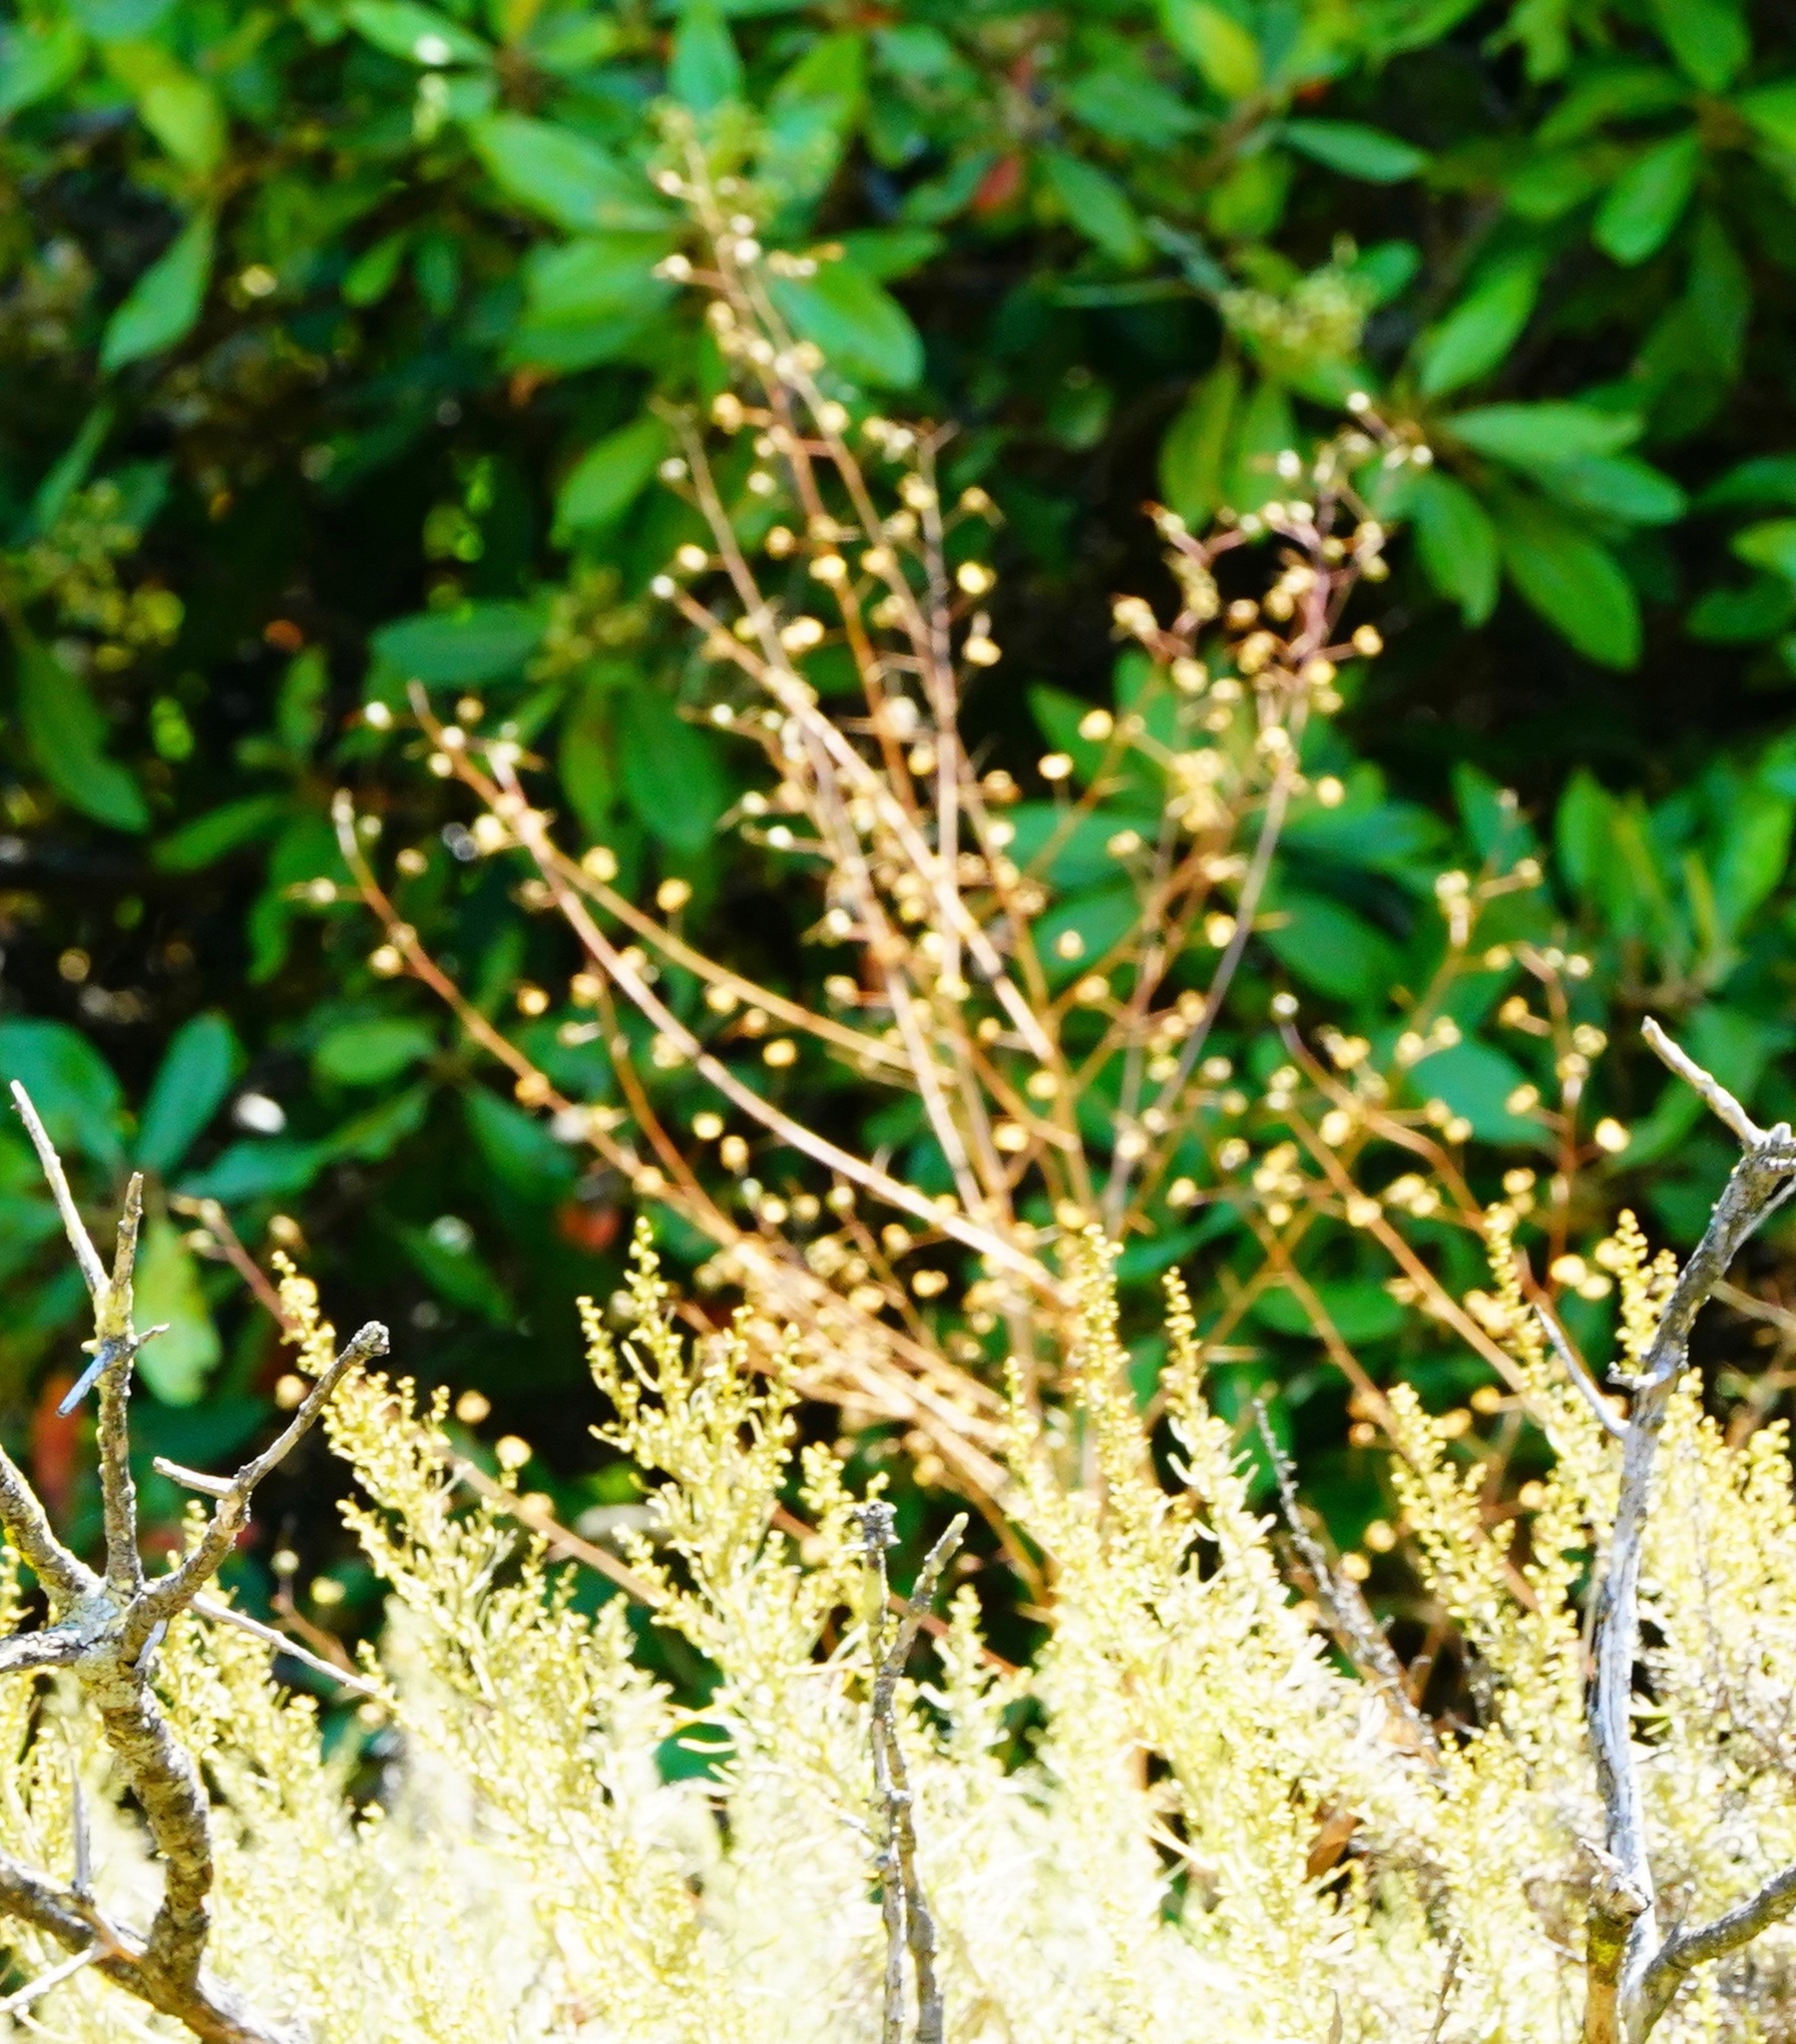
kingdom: Plantae
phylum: Tracheophyta
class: Liliopsida
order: Asparagales
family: Asparagaceae
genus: Chlorogalum
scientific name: Chlorogalum pomeridianum
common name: Amole
